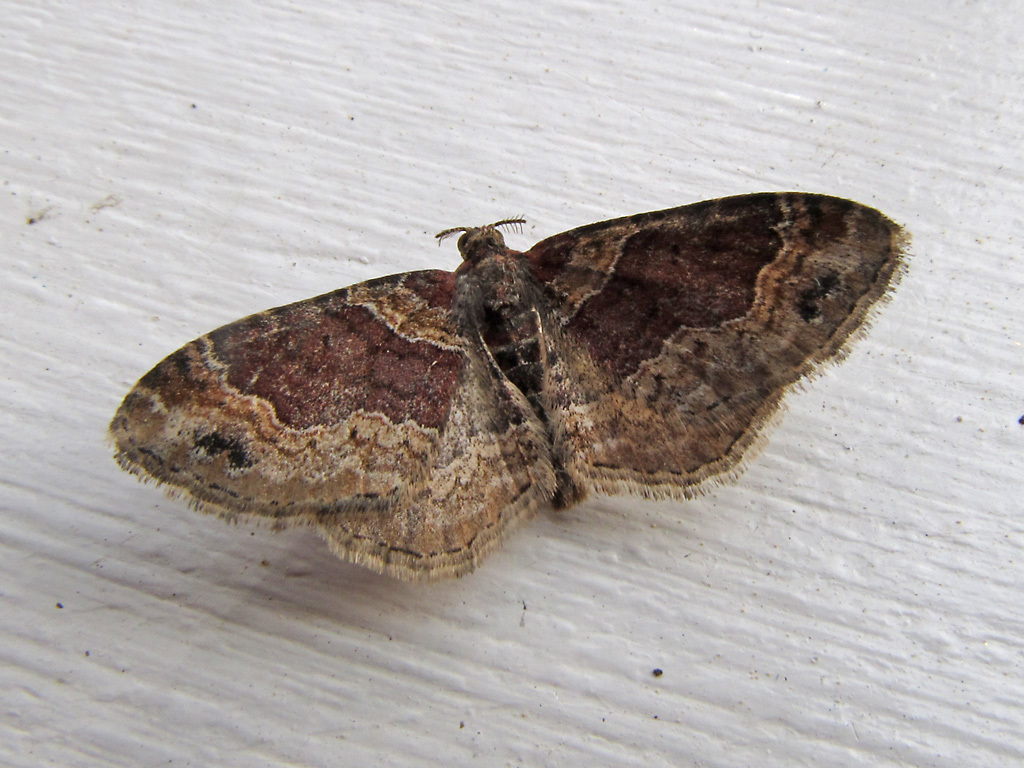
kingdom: Animalia
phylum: Arthropoda
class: Insecta
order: Lepidoptera
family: Geometridae
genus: Xanthorhoe
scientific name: Xanthorhoe ferrugata
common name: Dark-barred twin-spot carpet
